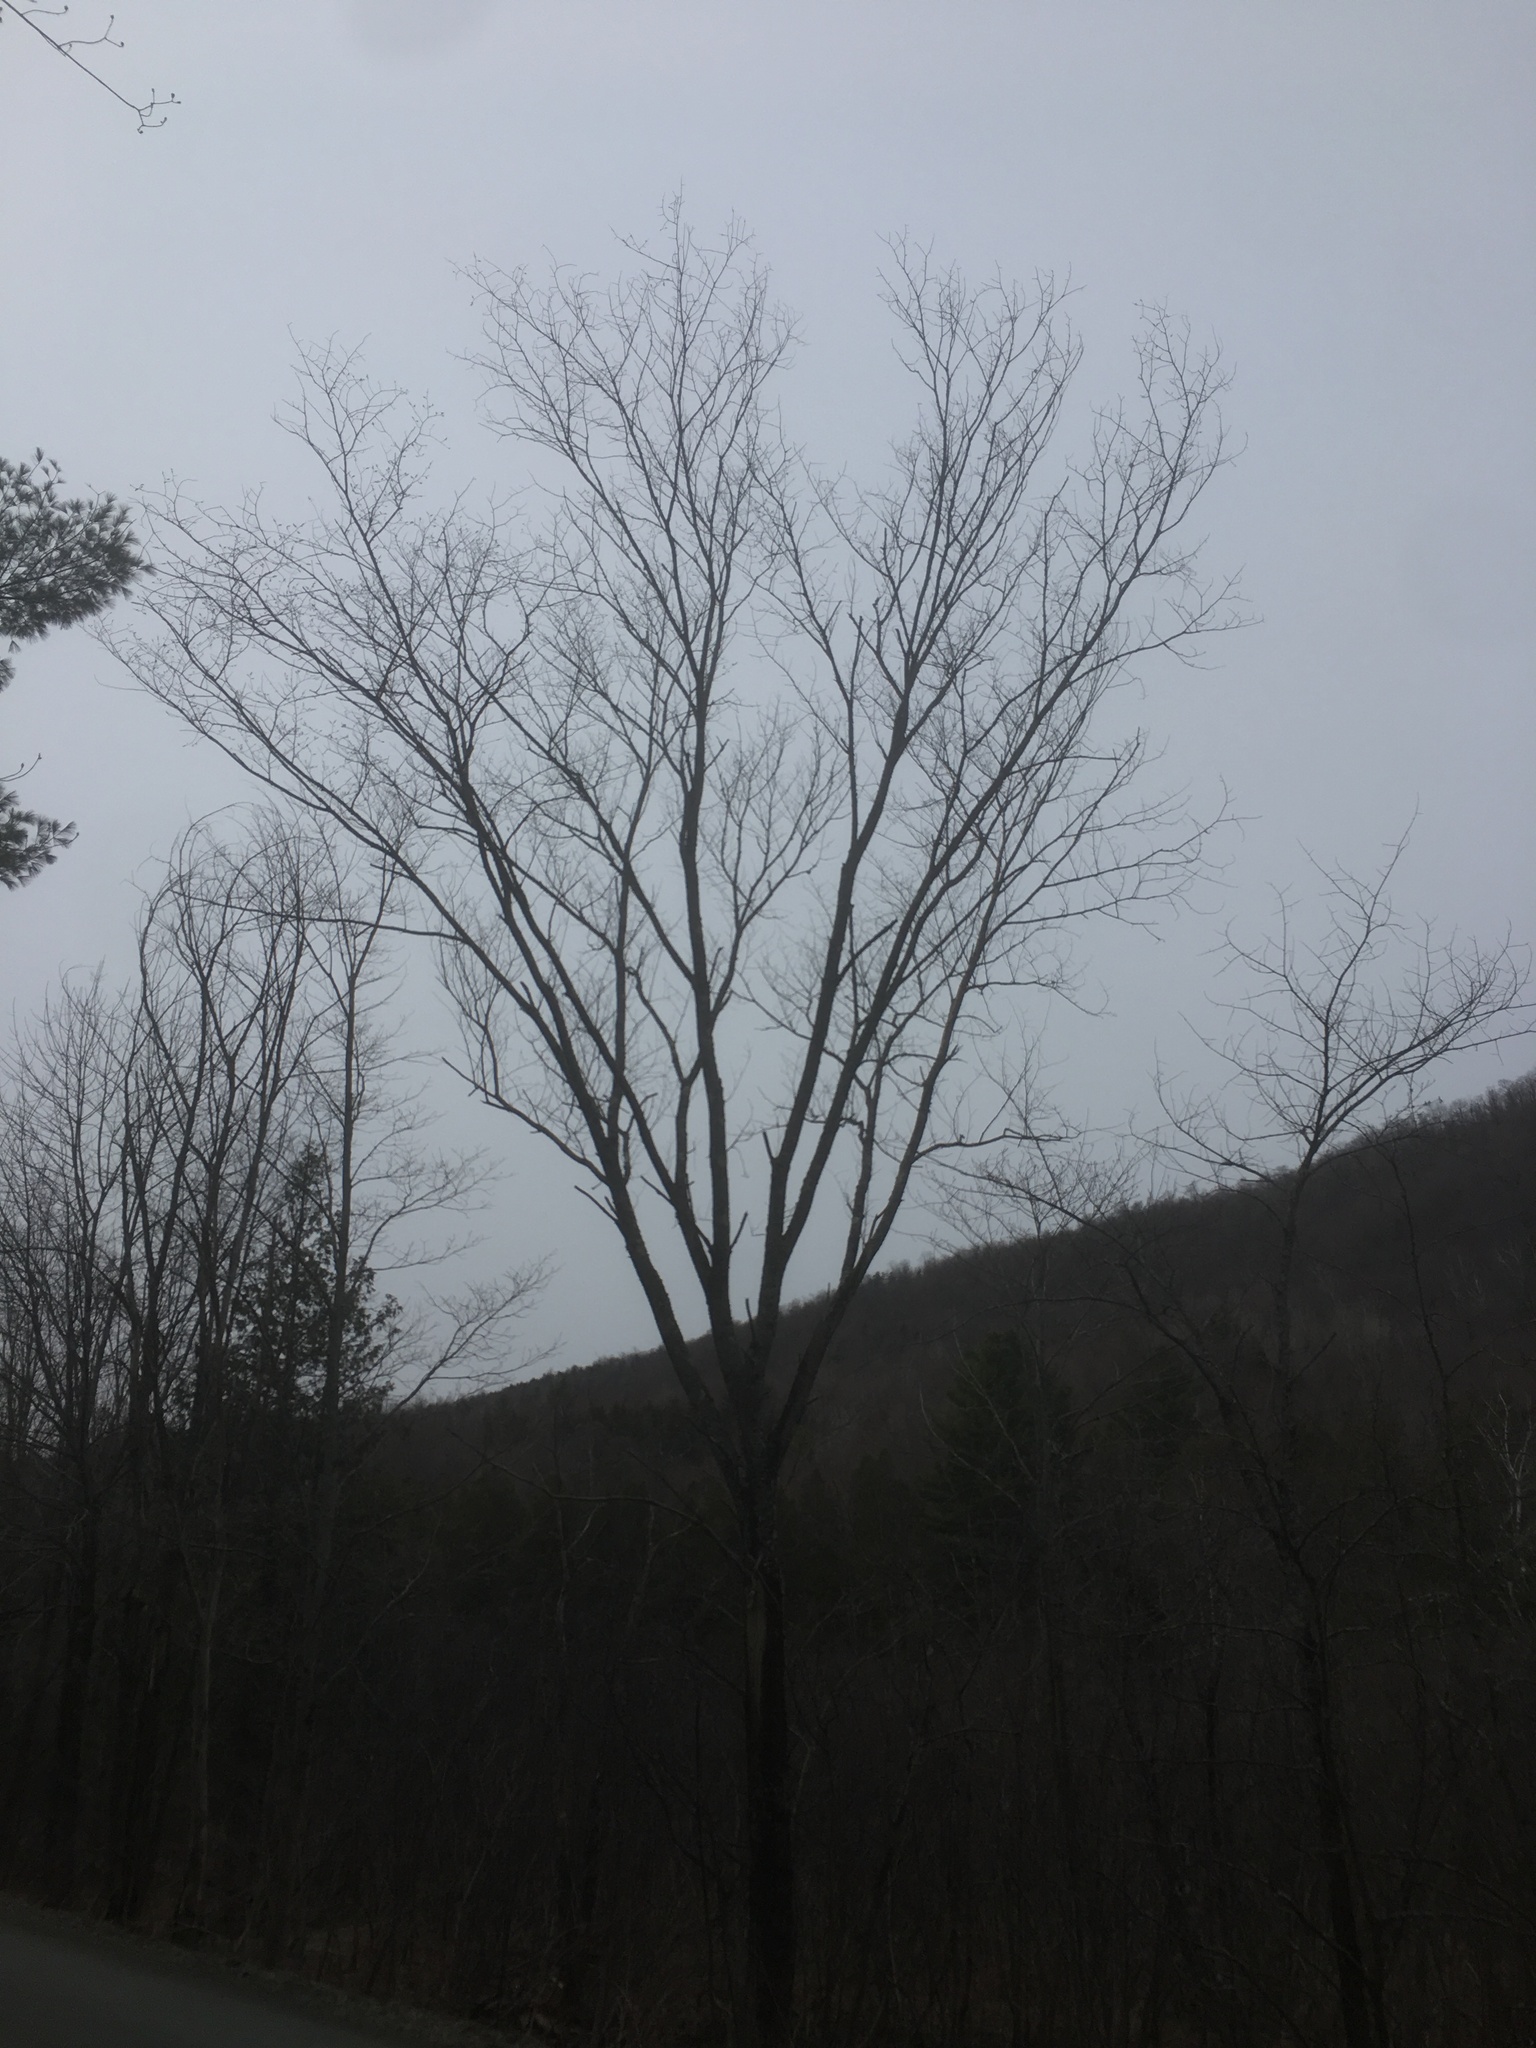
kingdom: Plantae
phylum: Tracheophyta
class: Magnoliopsida
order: Rosales
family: Ulmaceae
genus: Ulmus
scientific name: Ulmus americana
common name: American elm
